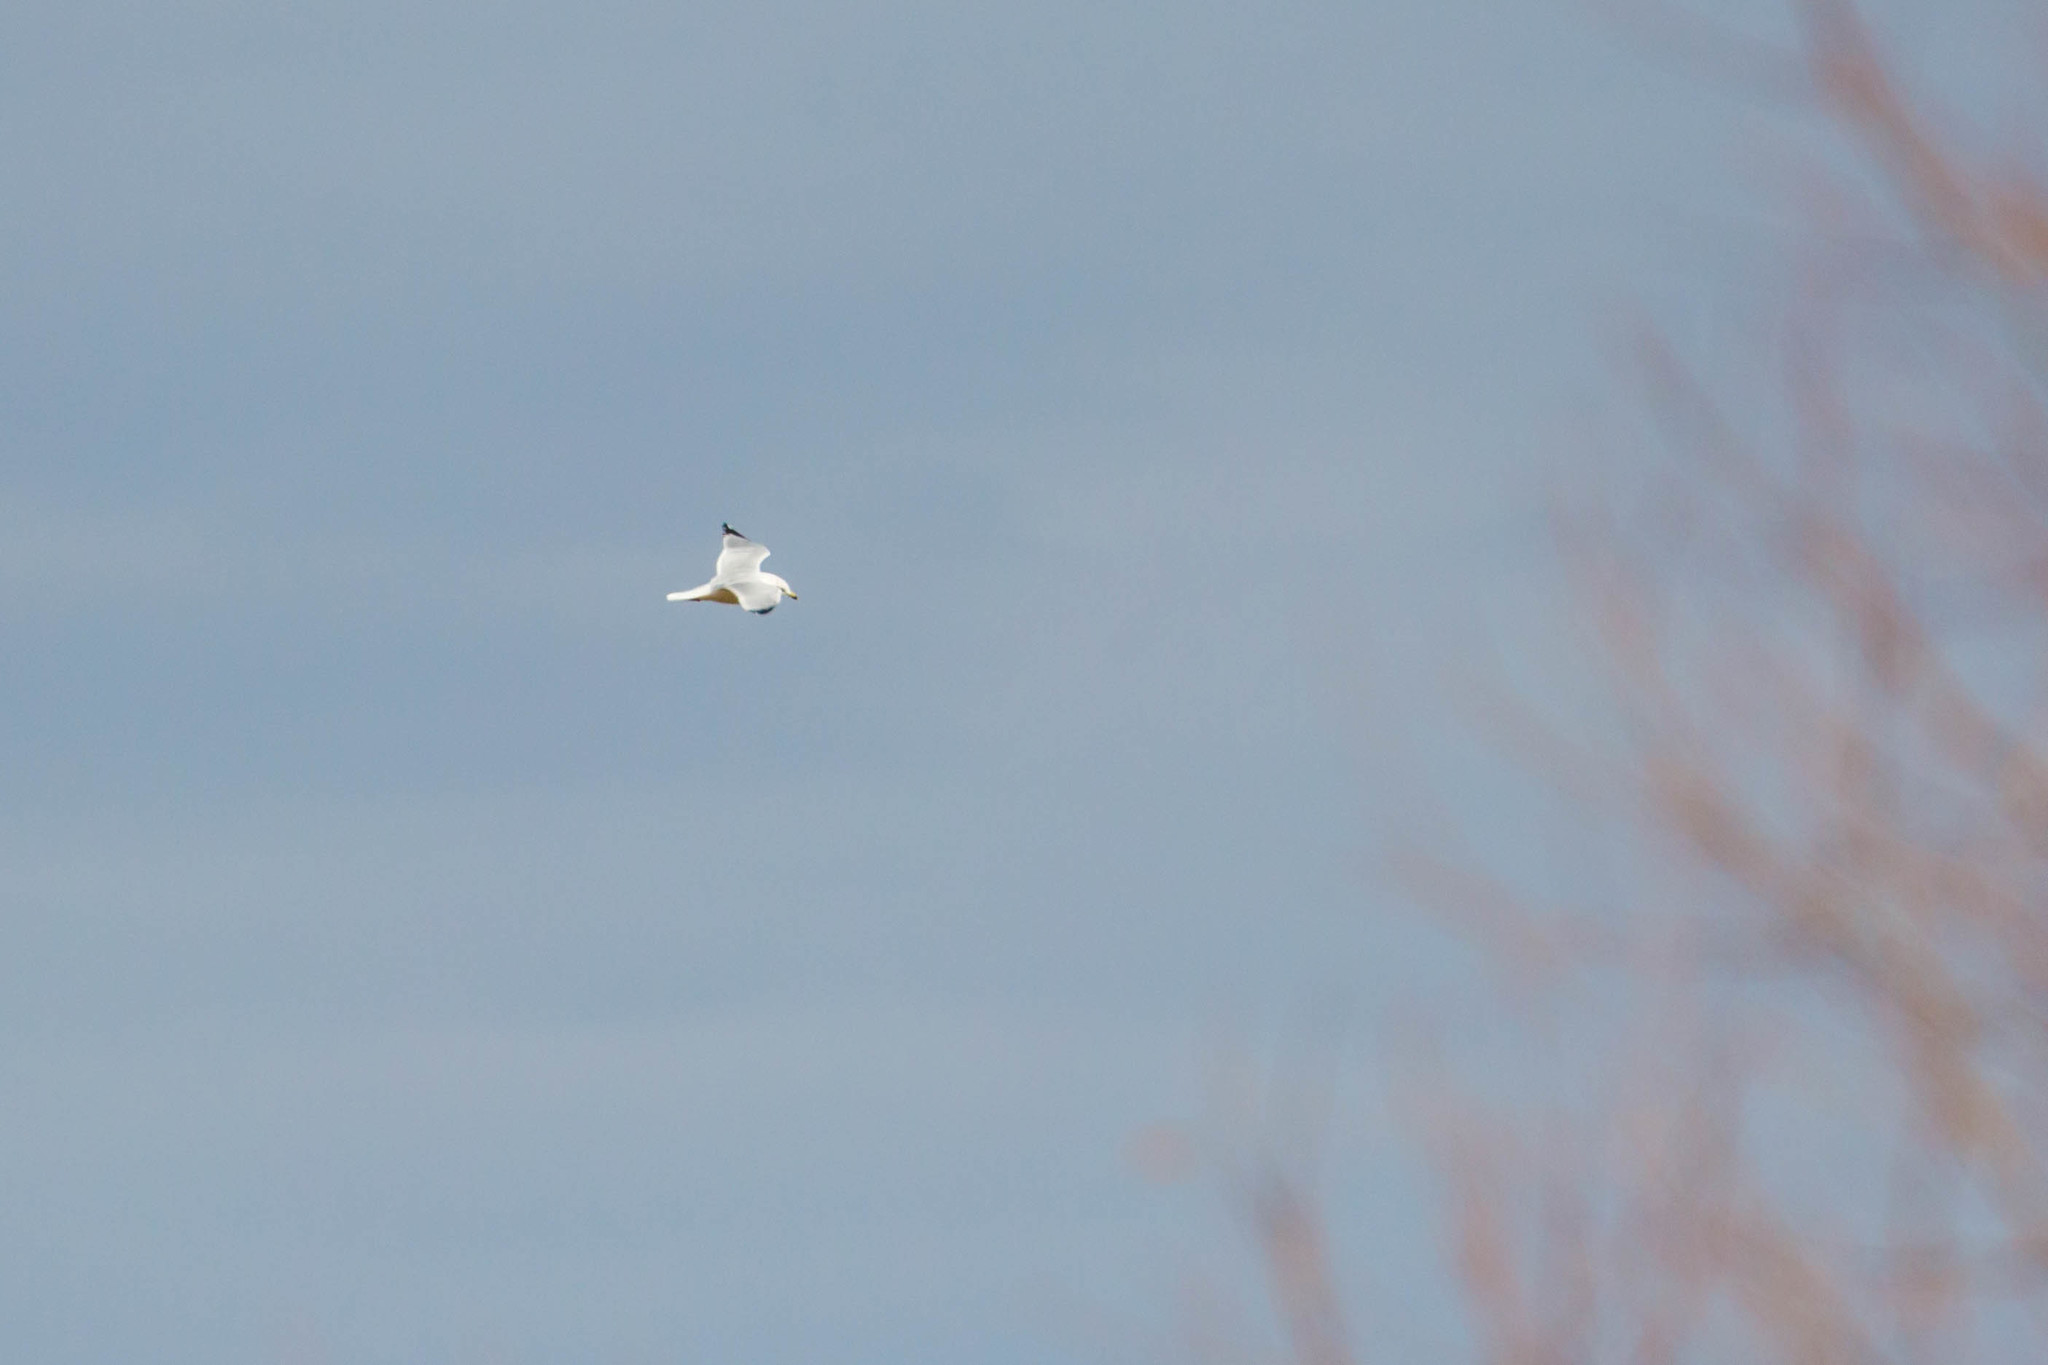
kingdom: Animalia
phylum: Chordata
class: Aves
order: Charadriiformes
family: Laridae
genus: Larus
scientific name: Larus delawarensis
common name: Ring-billed gull
